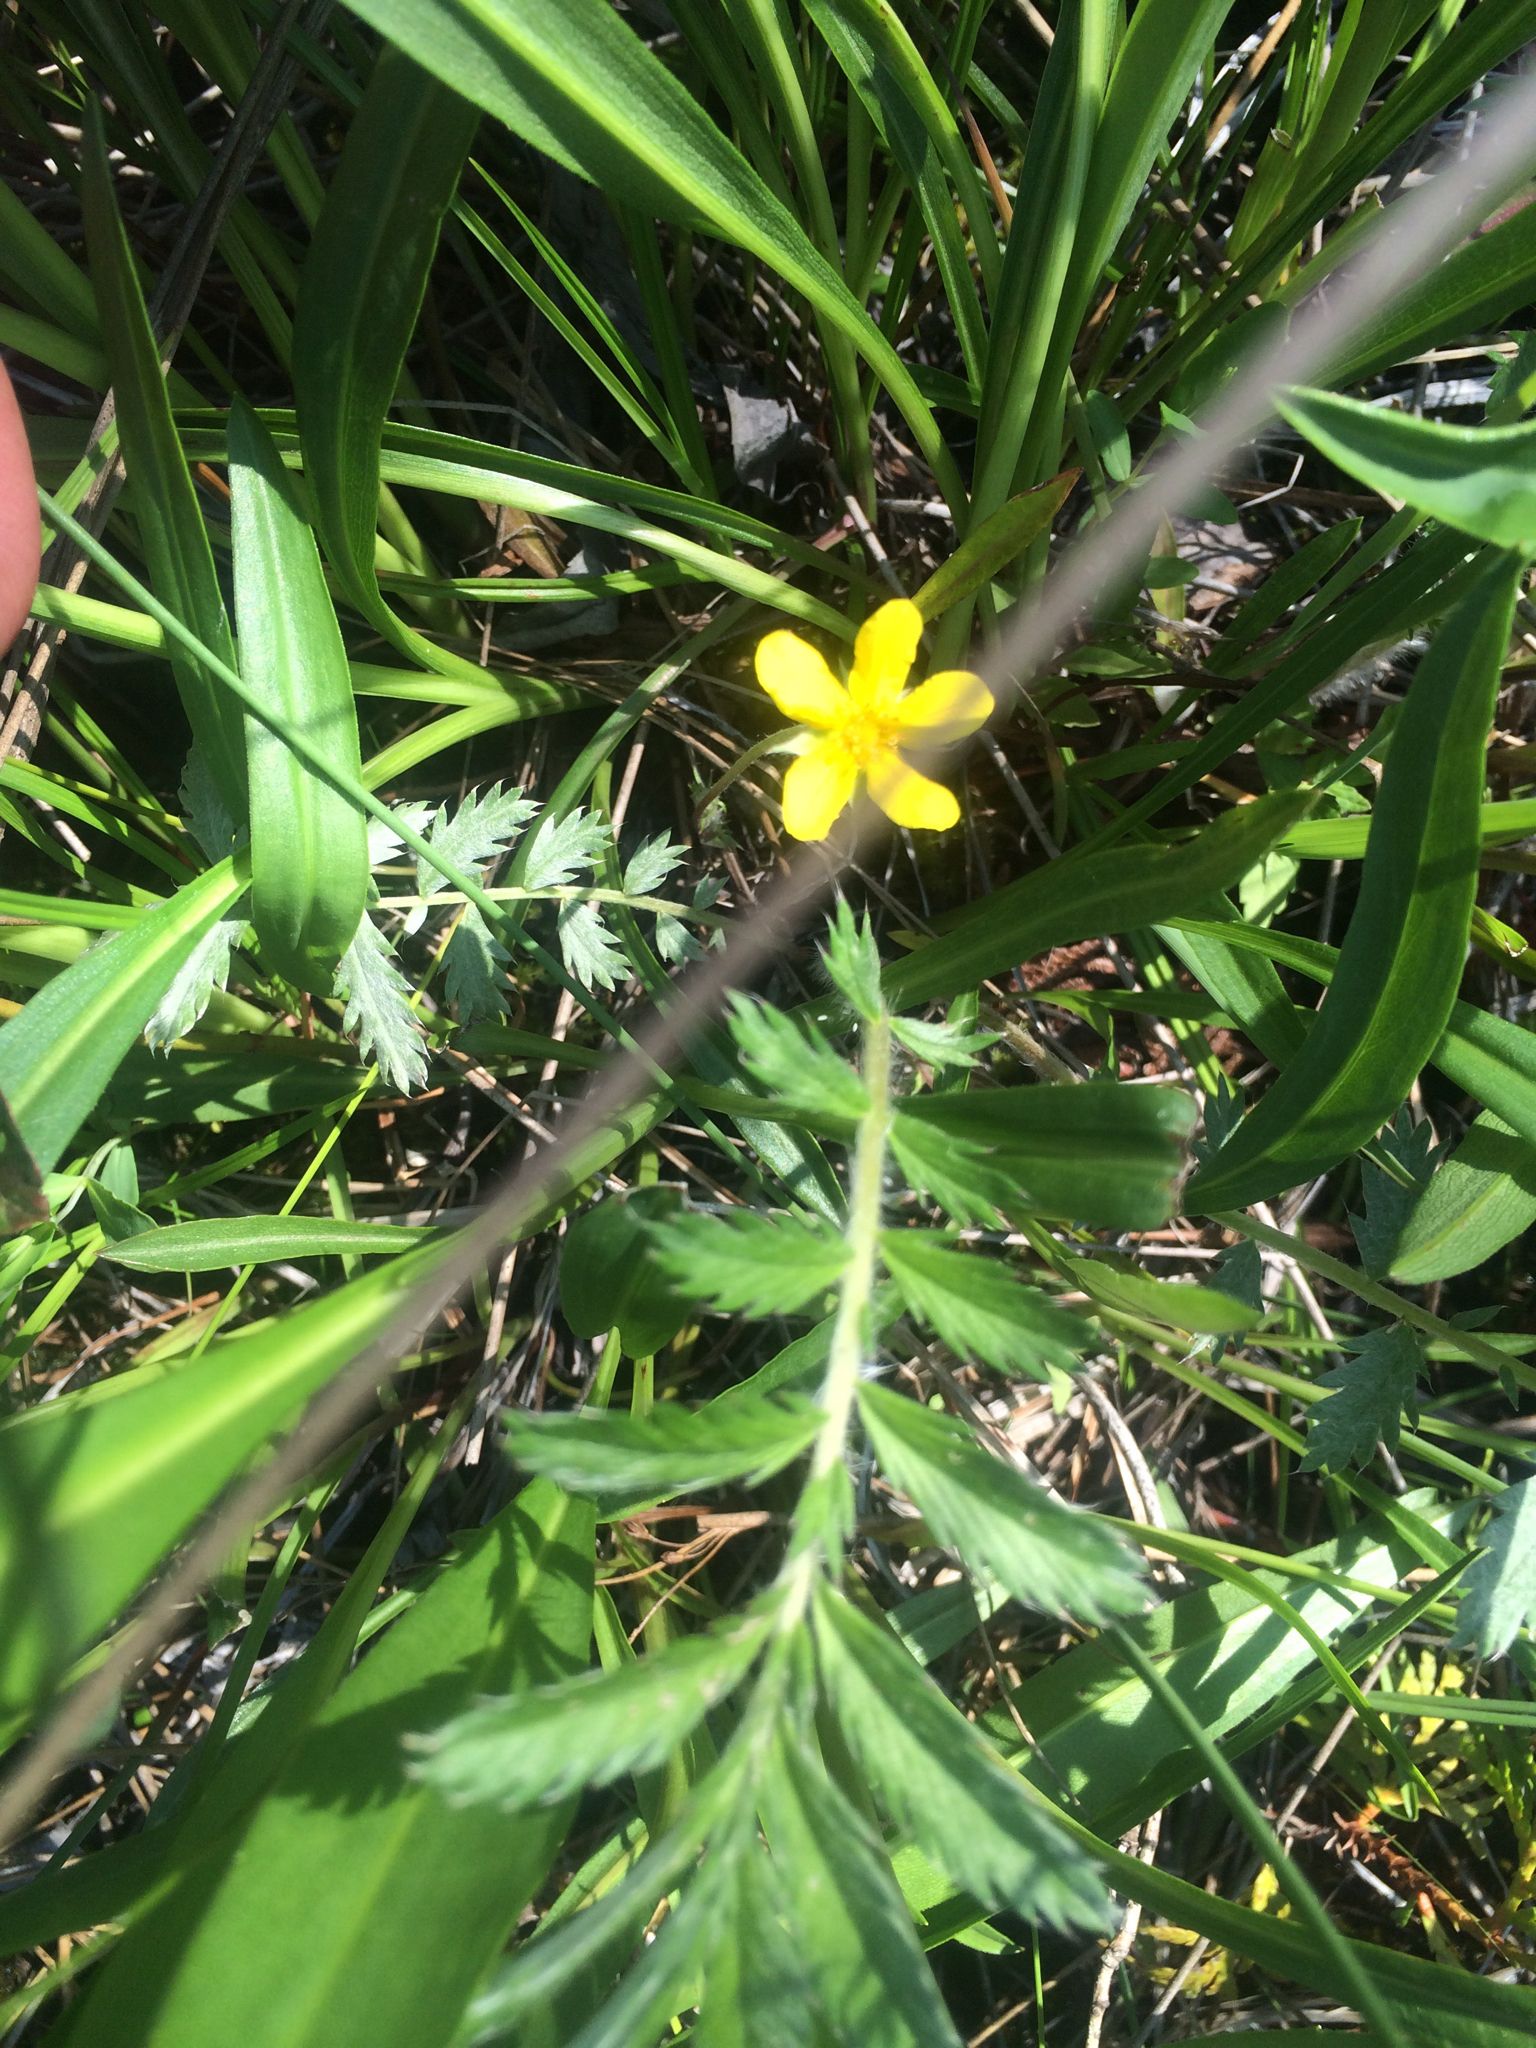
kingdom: Plantae
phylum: Tracheophyta
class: Magnoliopsida
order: Rosales
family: Rosaceae
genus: Argentina
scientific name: Argentina anserina
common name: Common silverweed
